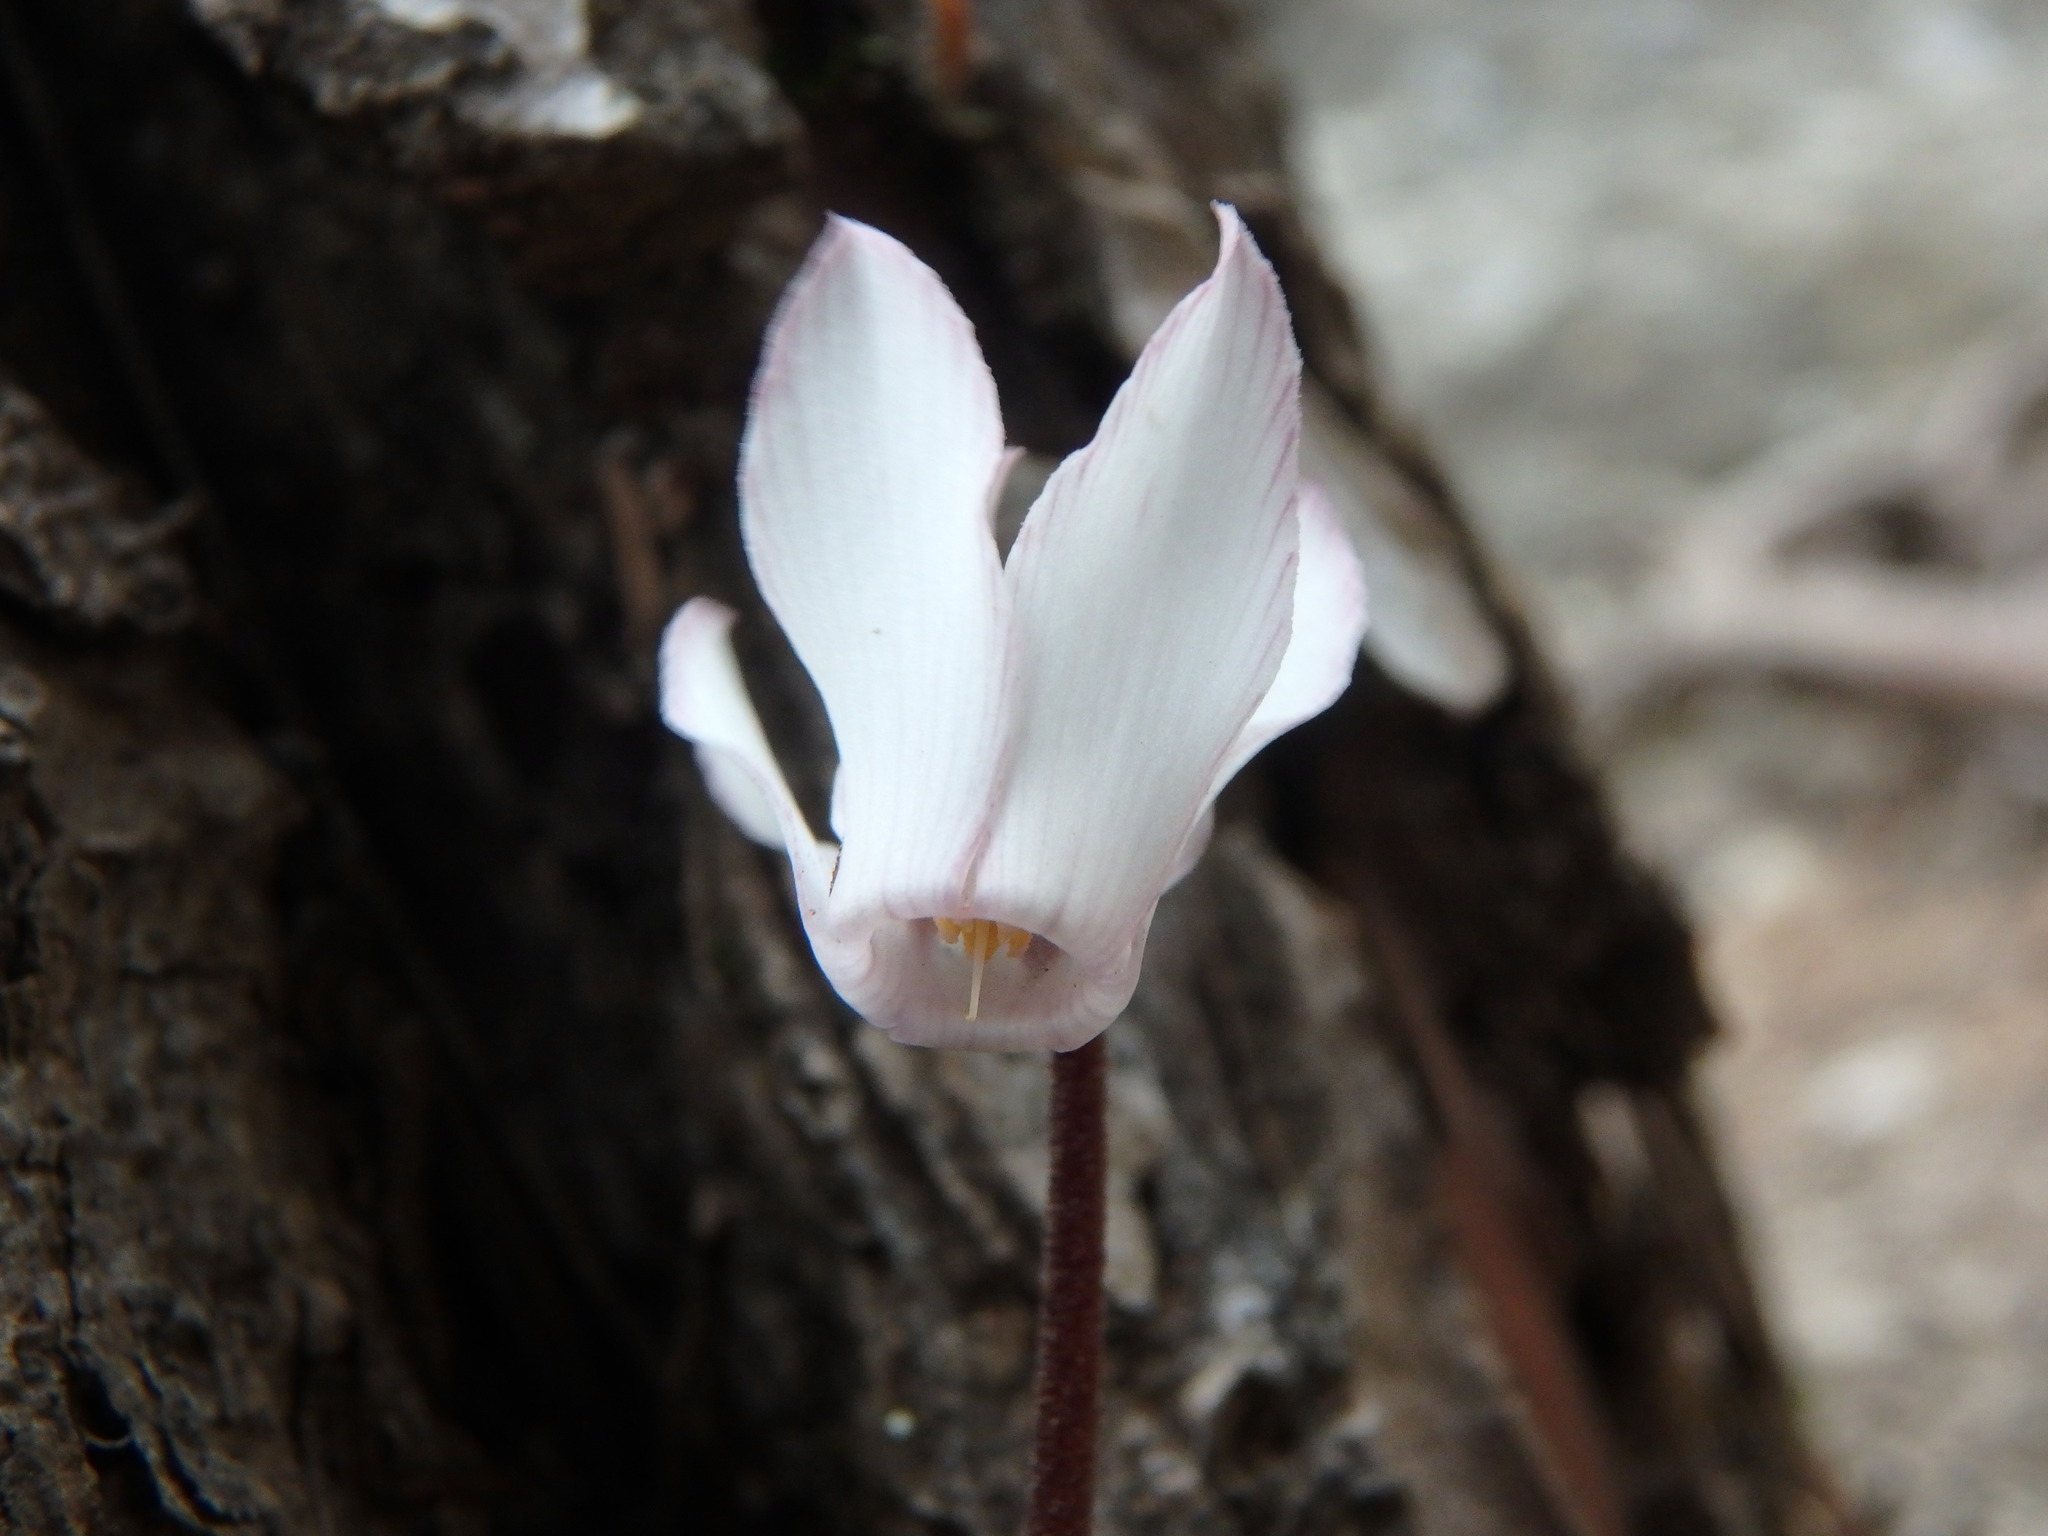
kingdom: Plantae
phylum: Tracheophyta
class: Magnoliopsida
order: Ericales
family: Primulaceae
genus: Cyclamen
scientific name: Cyclamen balearicum
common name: Majorca cyclamen
